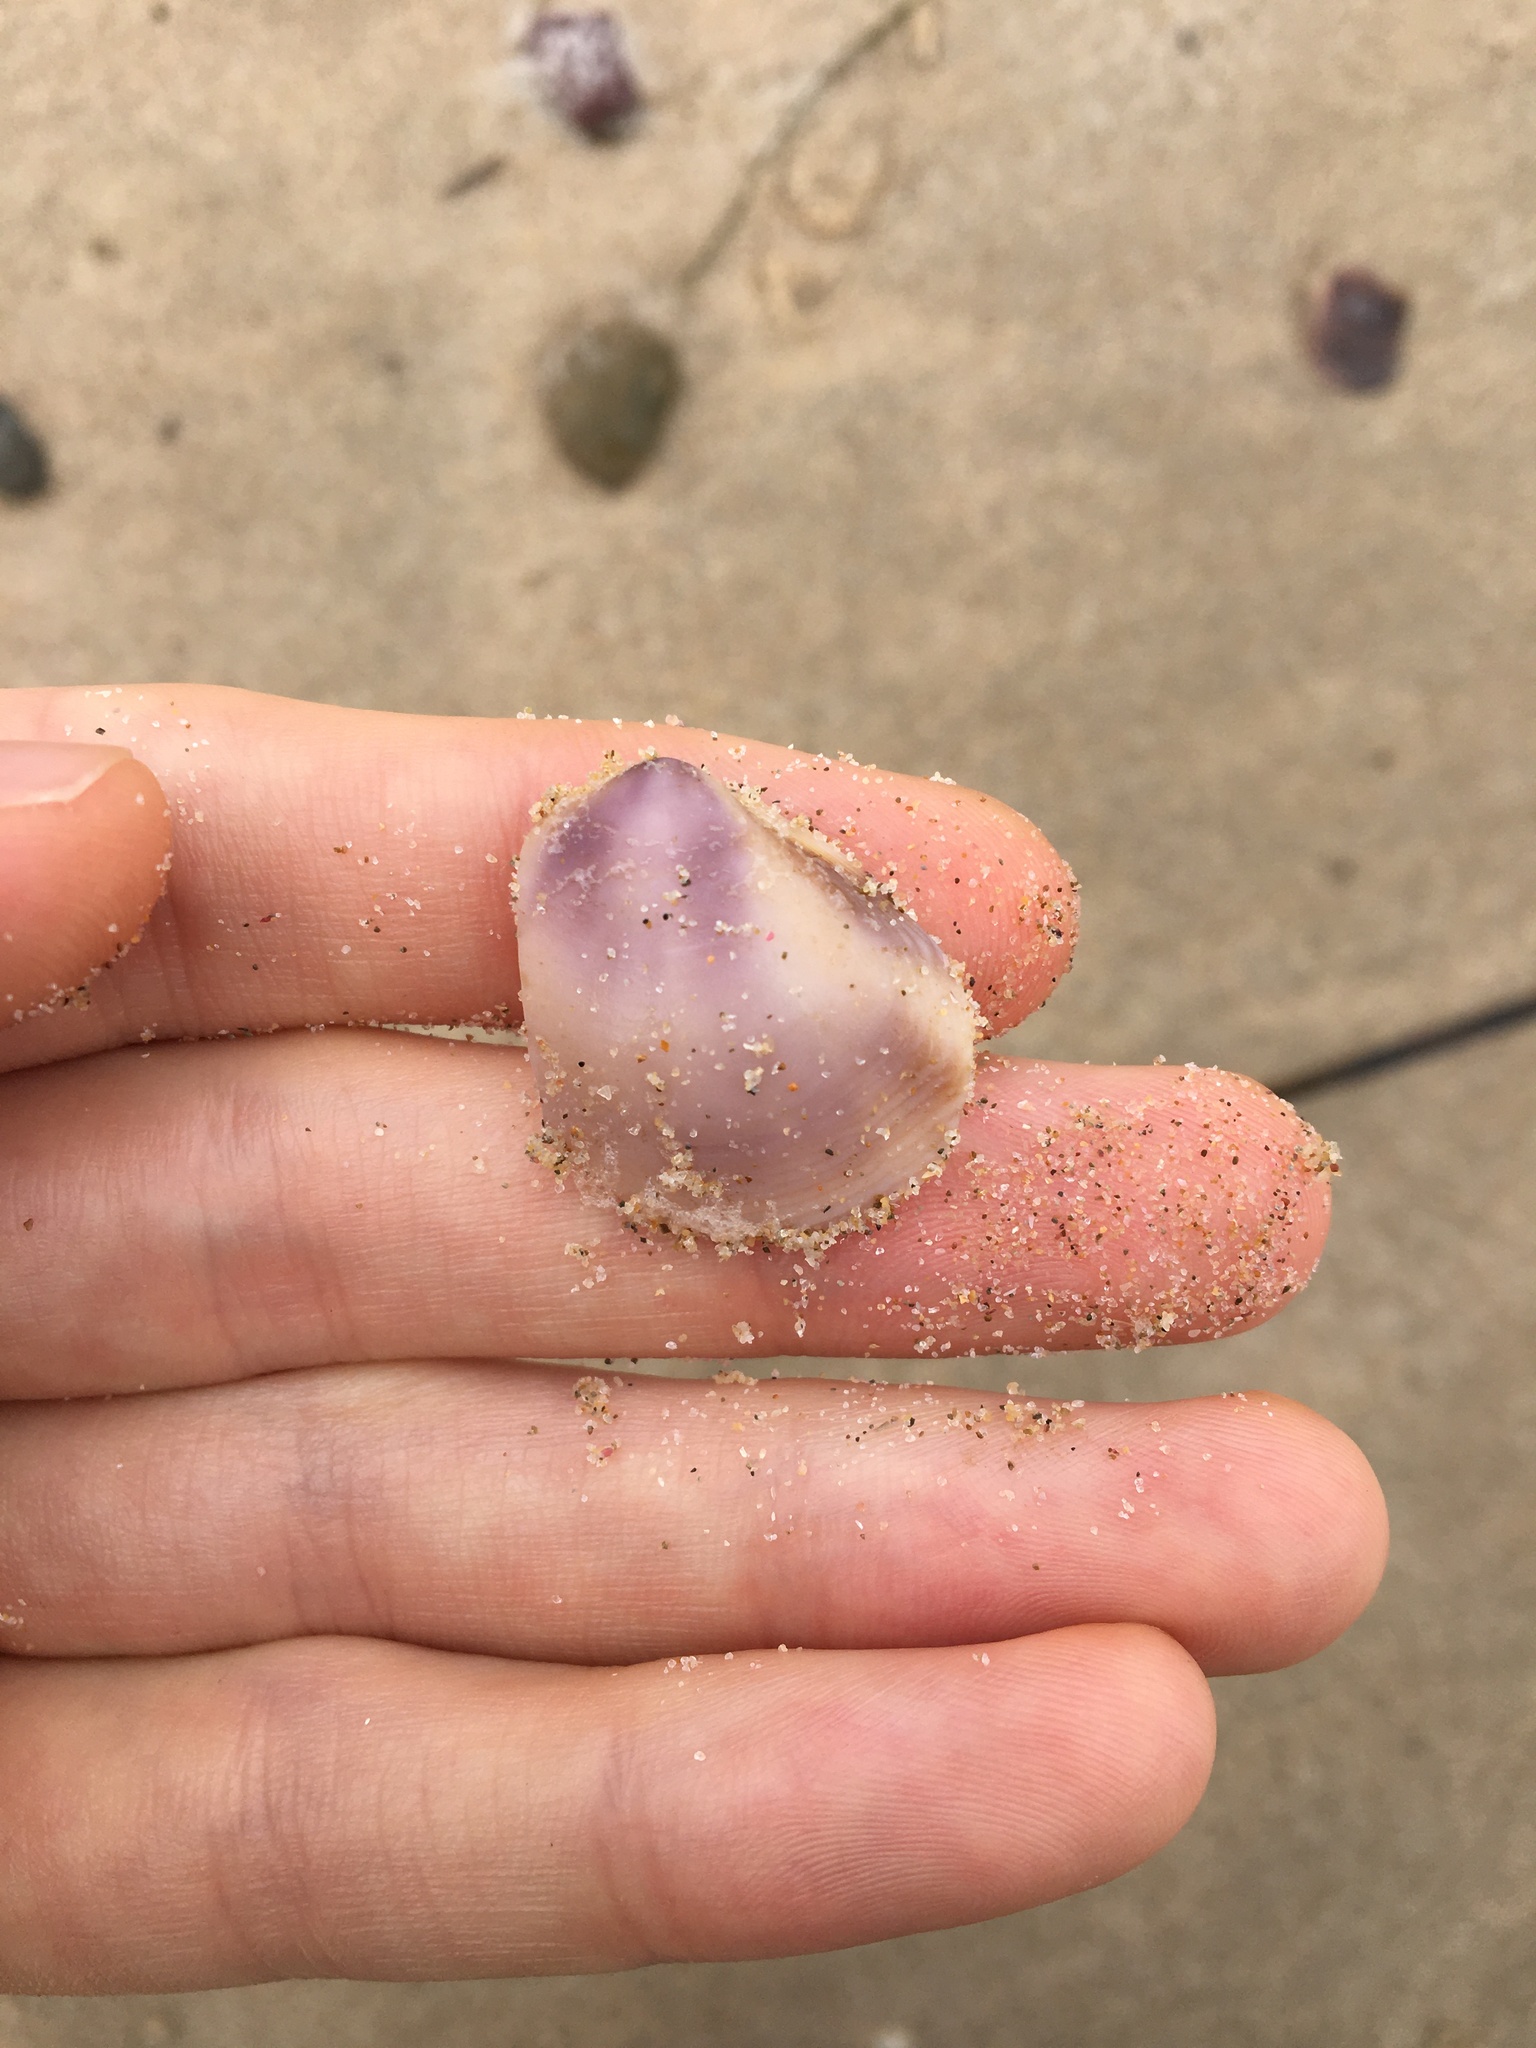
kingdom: Animalia
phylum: Mollusca
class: Bivalvia
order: Venerida
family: Mactridae
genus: Austromactra
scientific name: Austromactra contraria
